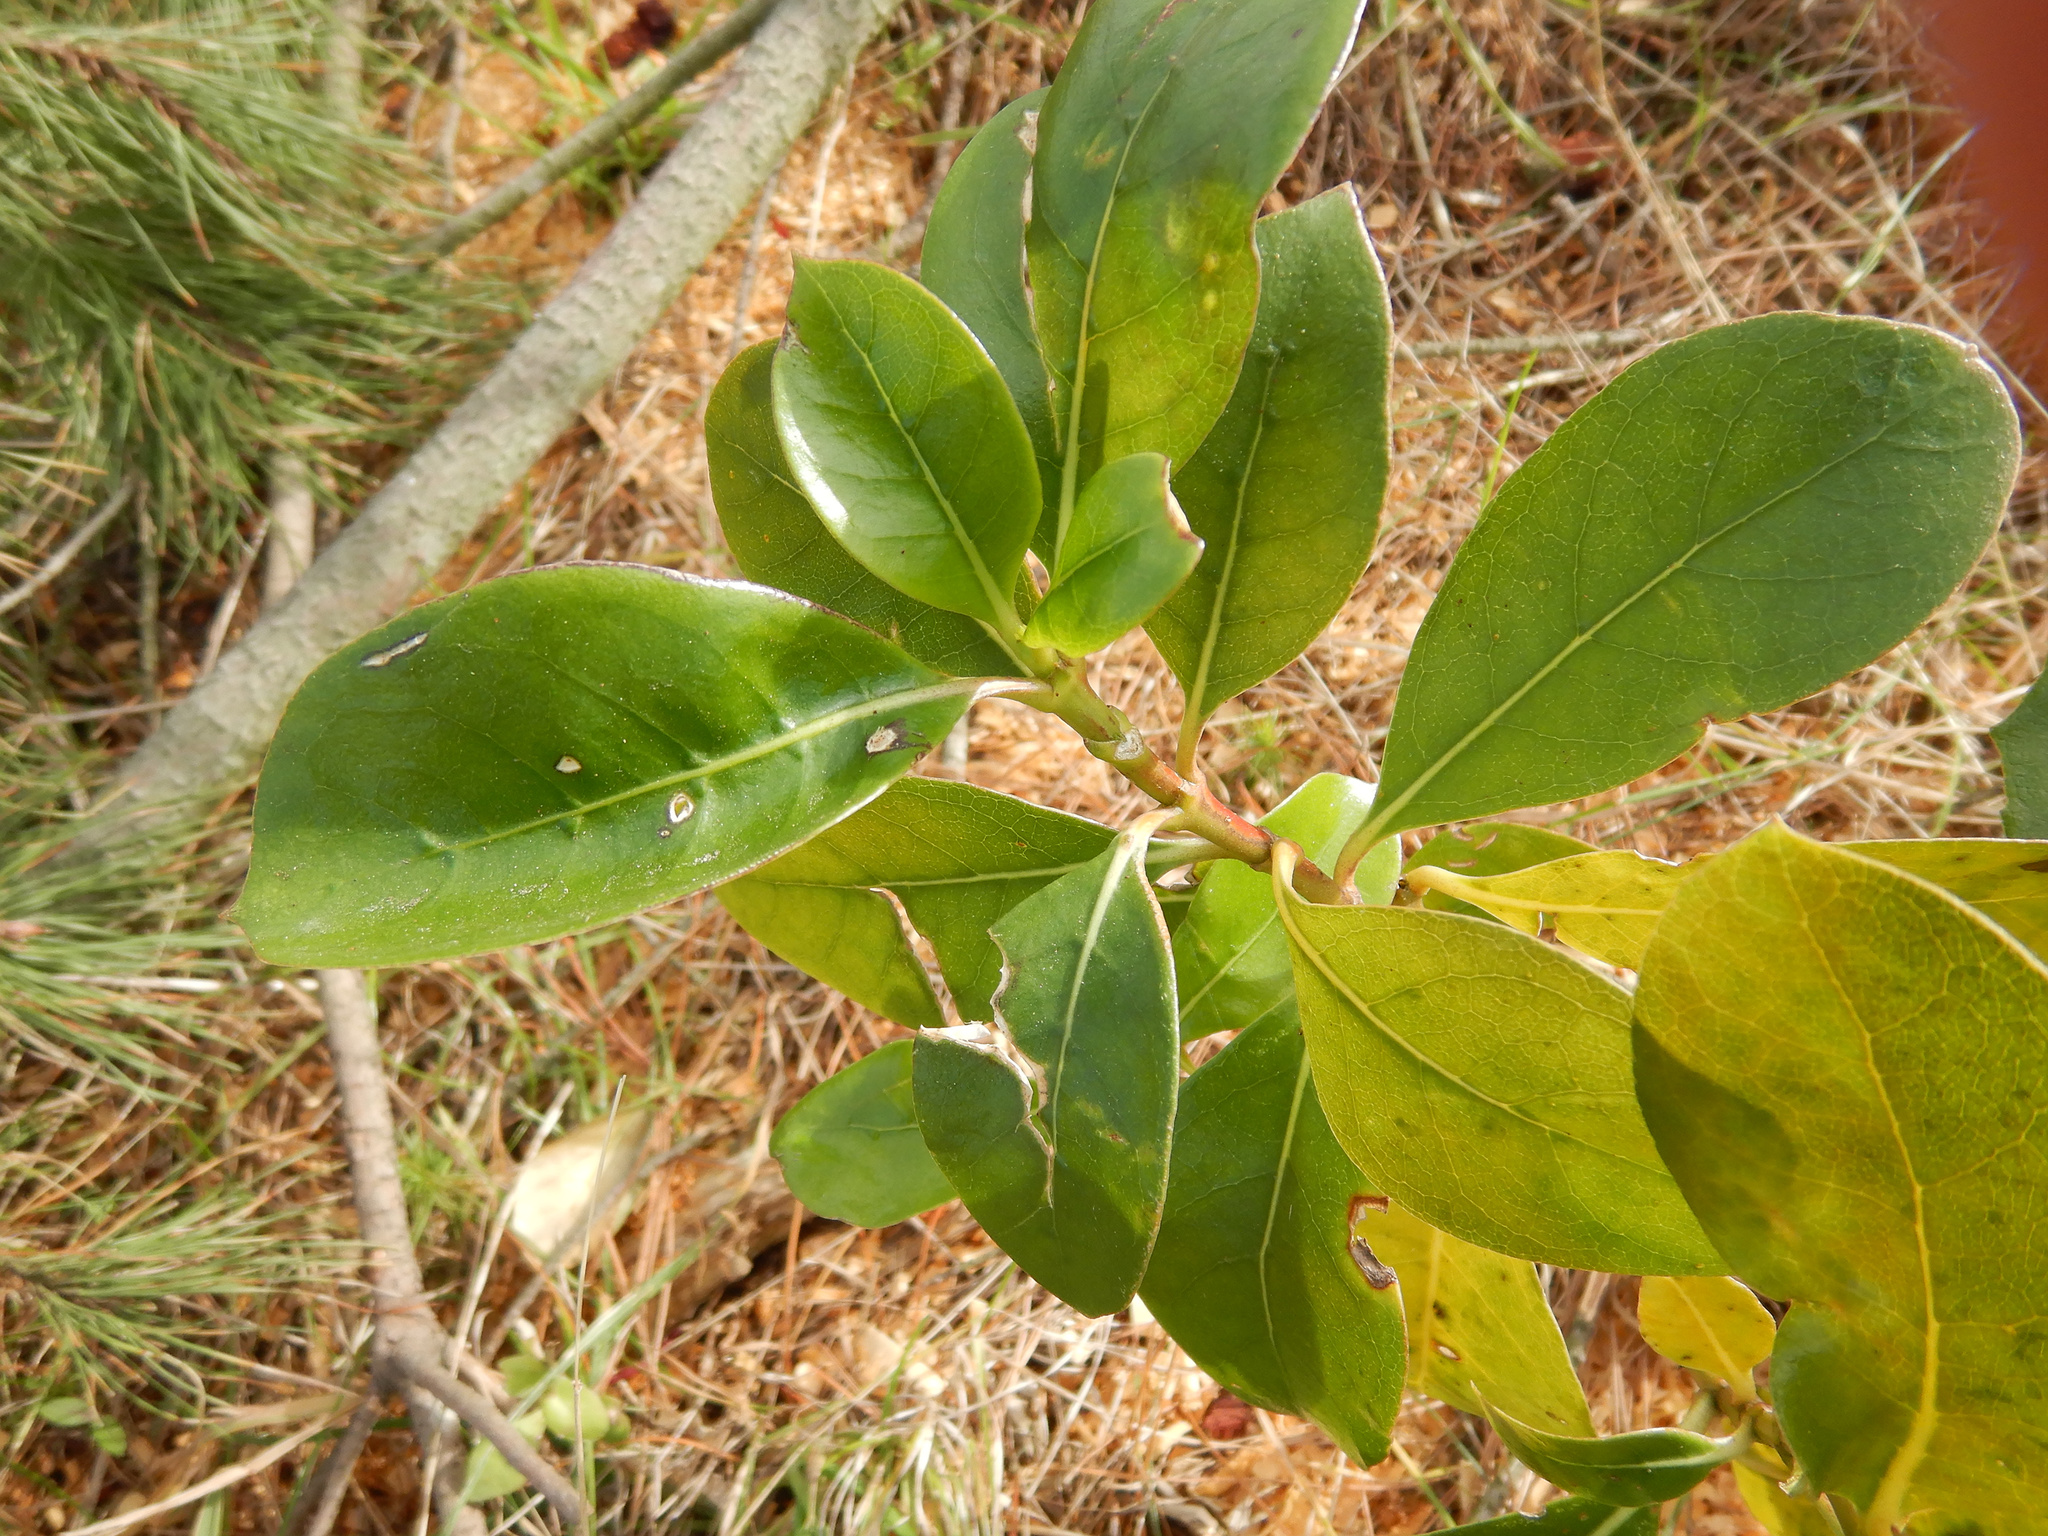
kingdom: Plantae
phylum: Tracheophyta
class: Magnoliopsida
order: Gentianales
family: Rubiaceae
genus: Coprosma
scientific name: Coprosma lucida
